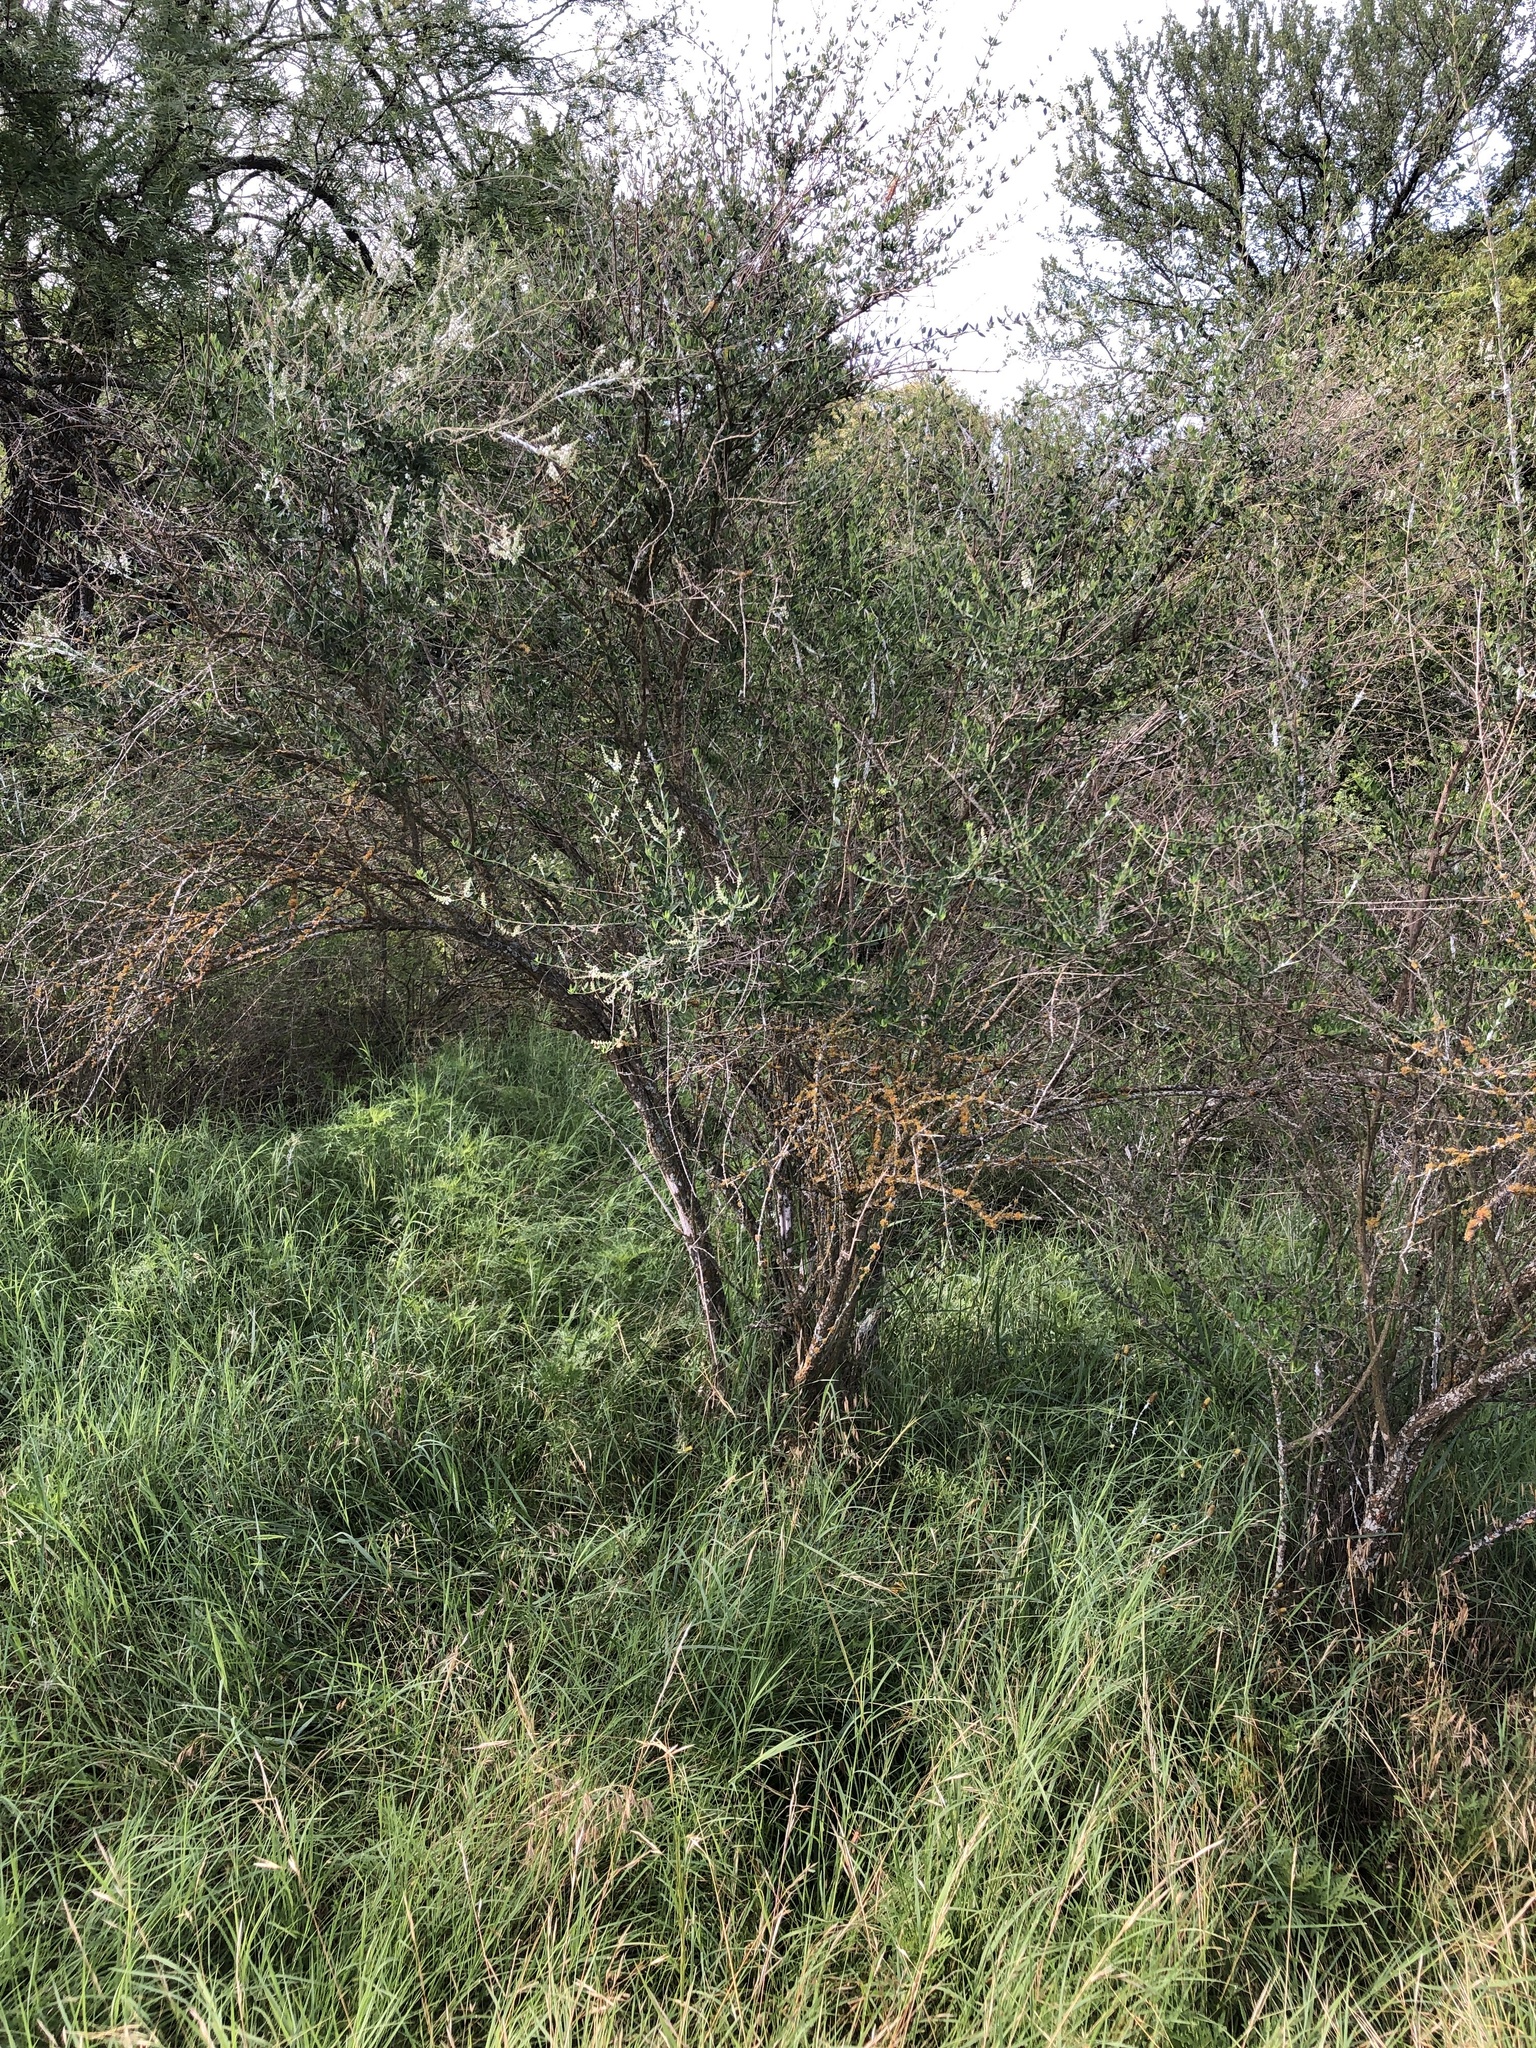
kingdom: Plantae
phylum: Tracheophyta
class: Magnoliopsida
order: Lamiales
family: Verbenaceae
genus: Aloysia
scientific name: Aloysia gratissima
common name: Common bee-brush
